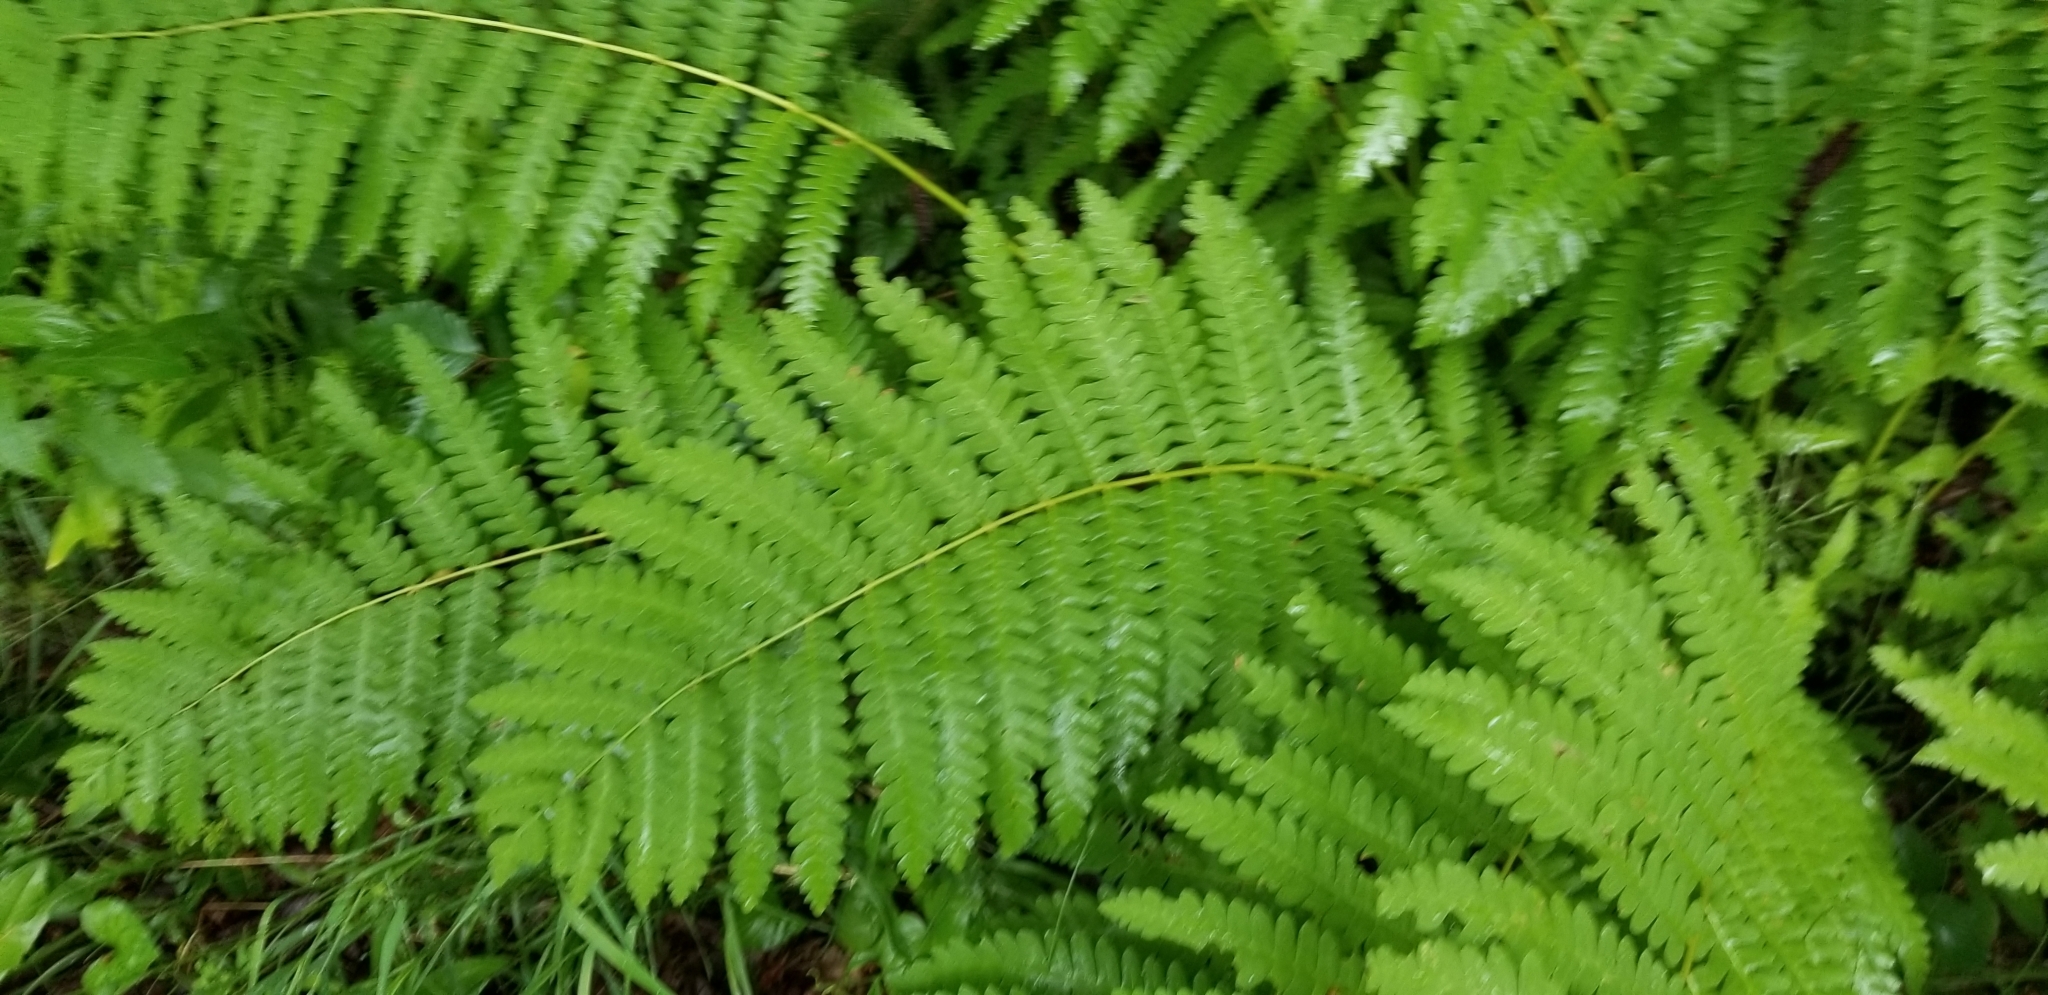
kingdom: Plantae
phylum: Tracheophyta
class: Polypodiopsida
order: Osmundales
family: Osmundaceae
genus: Claytosmunda
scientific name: Claytosmunda claytoniana
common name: Clayton's fern
